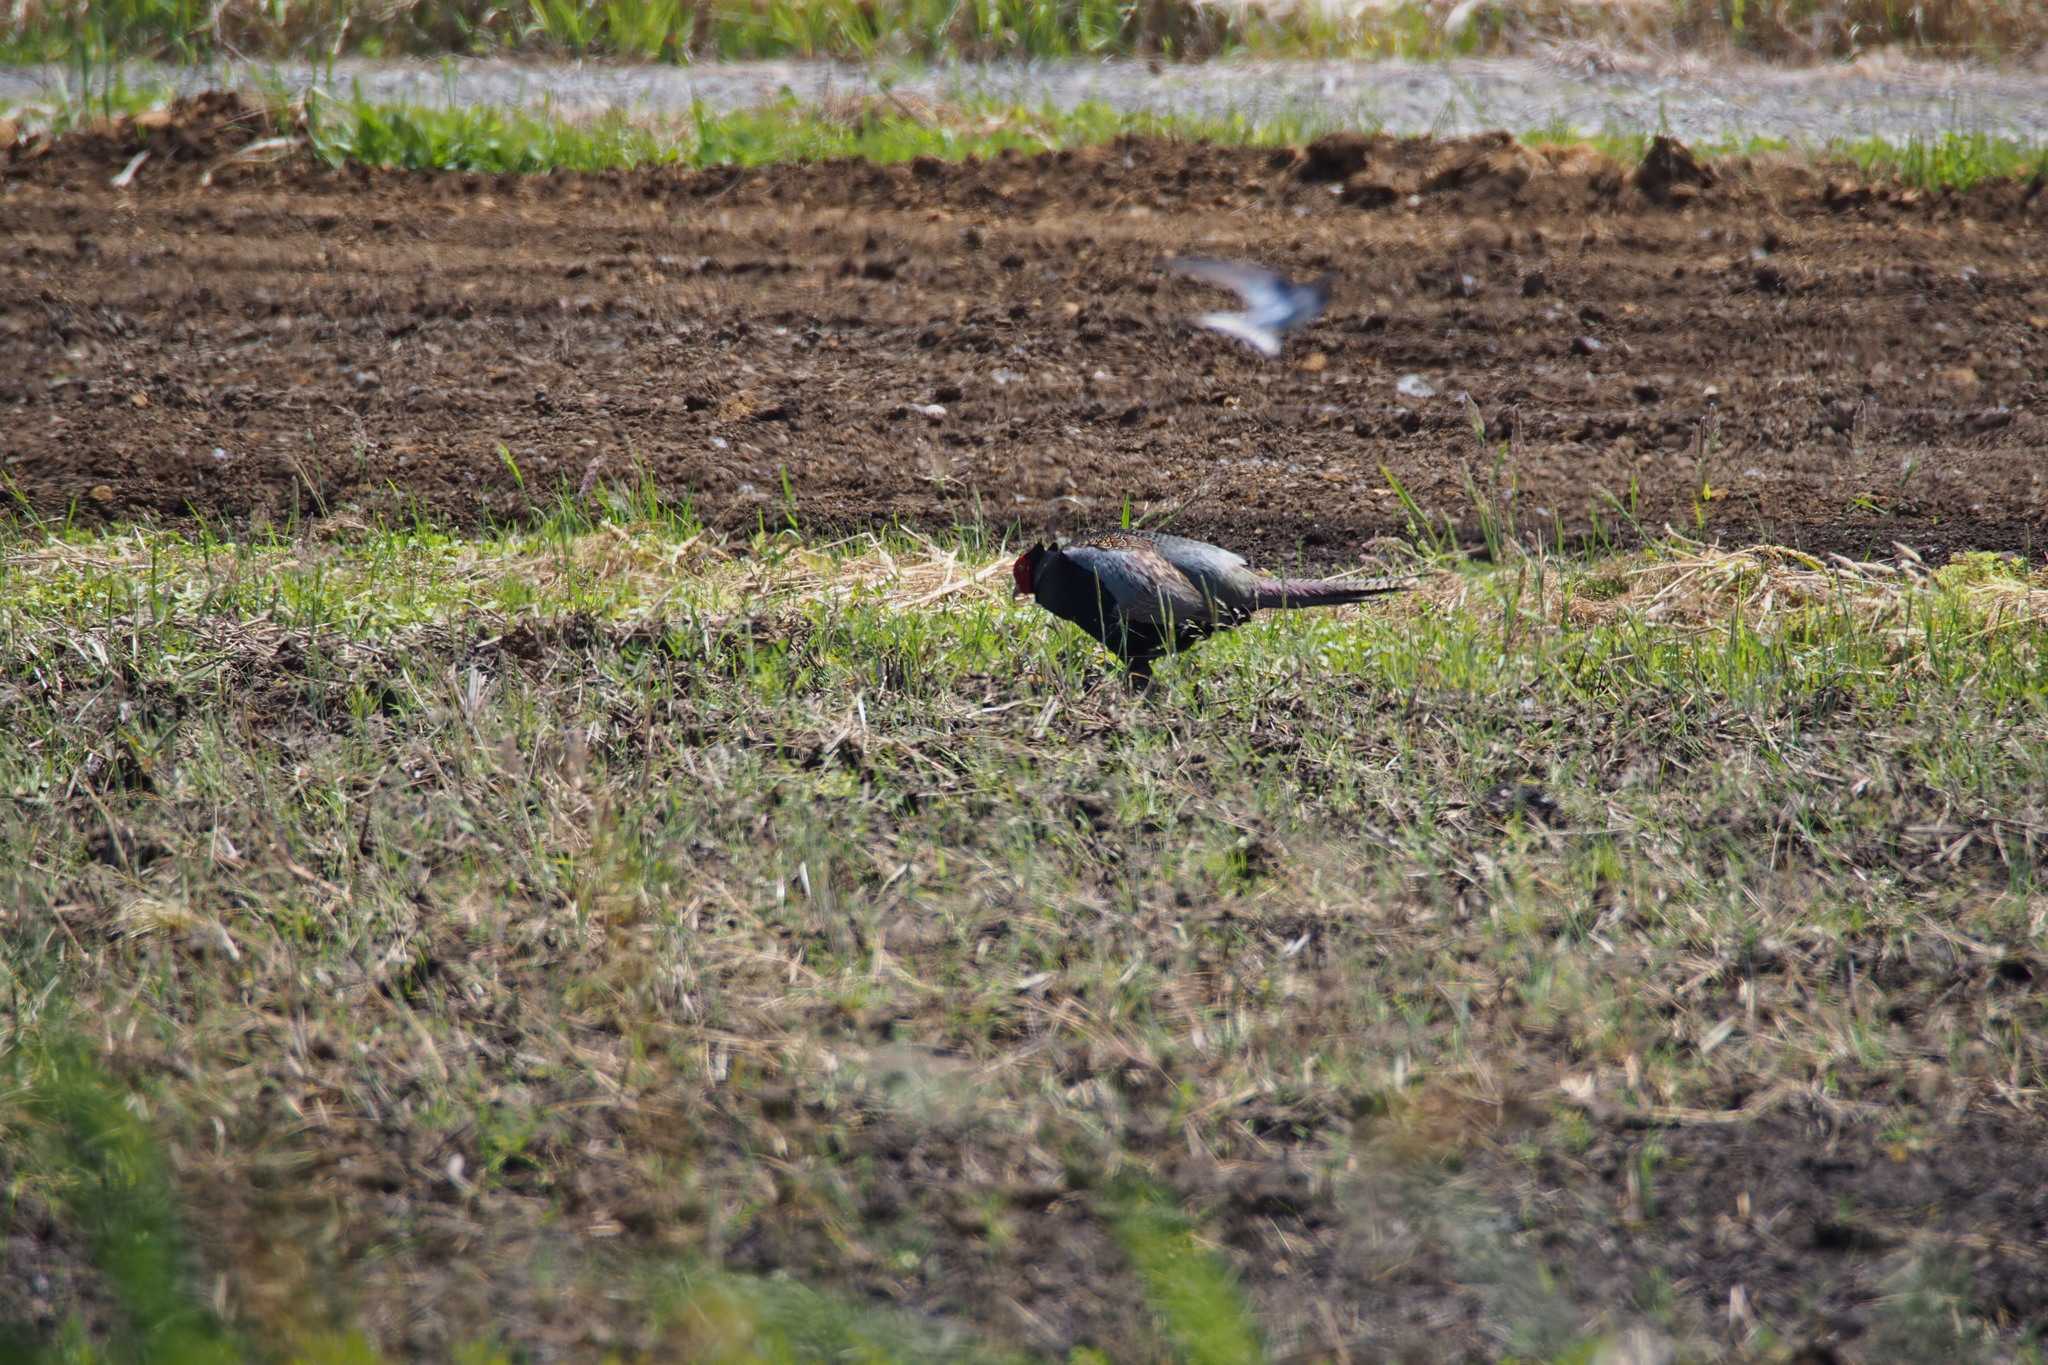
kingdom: Animalia
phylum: Chordata
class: Aves
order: Galliformes
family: Phasianidae
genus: Phasianus
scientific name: Phasianus versicolor
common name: Green pheasant
